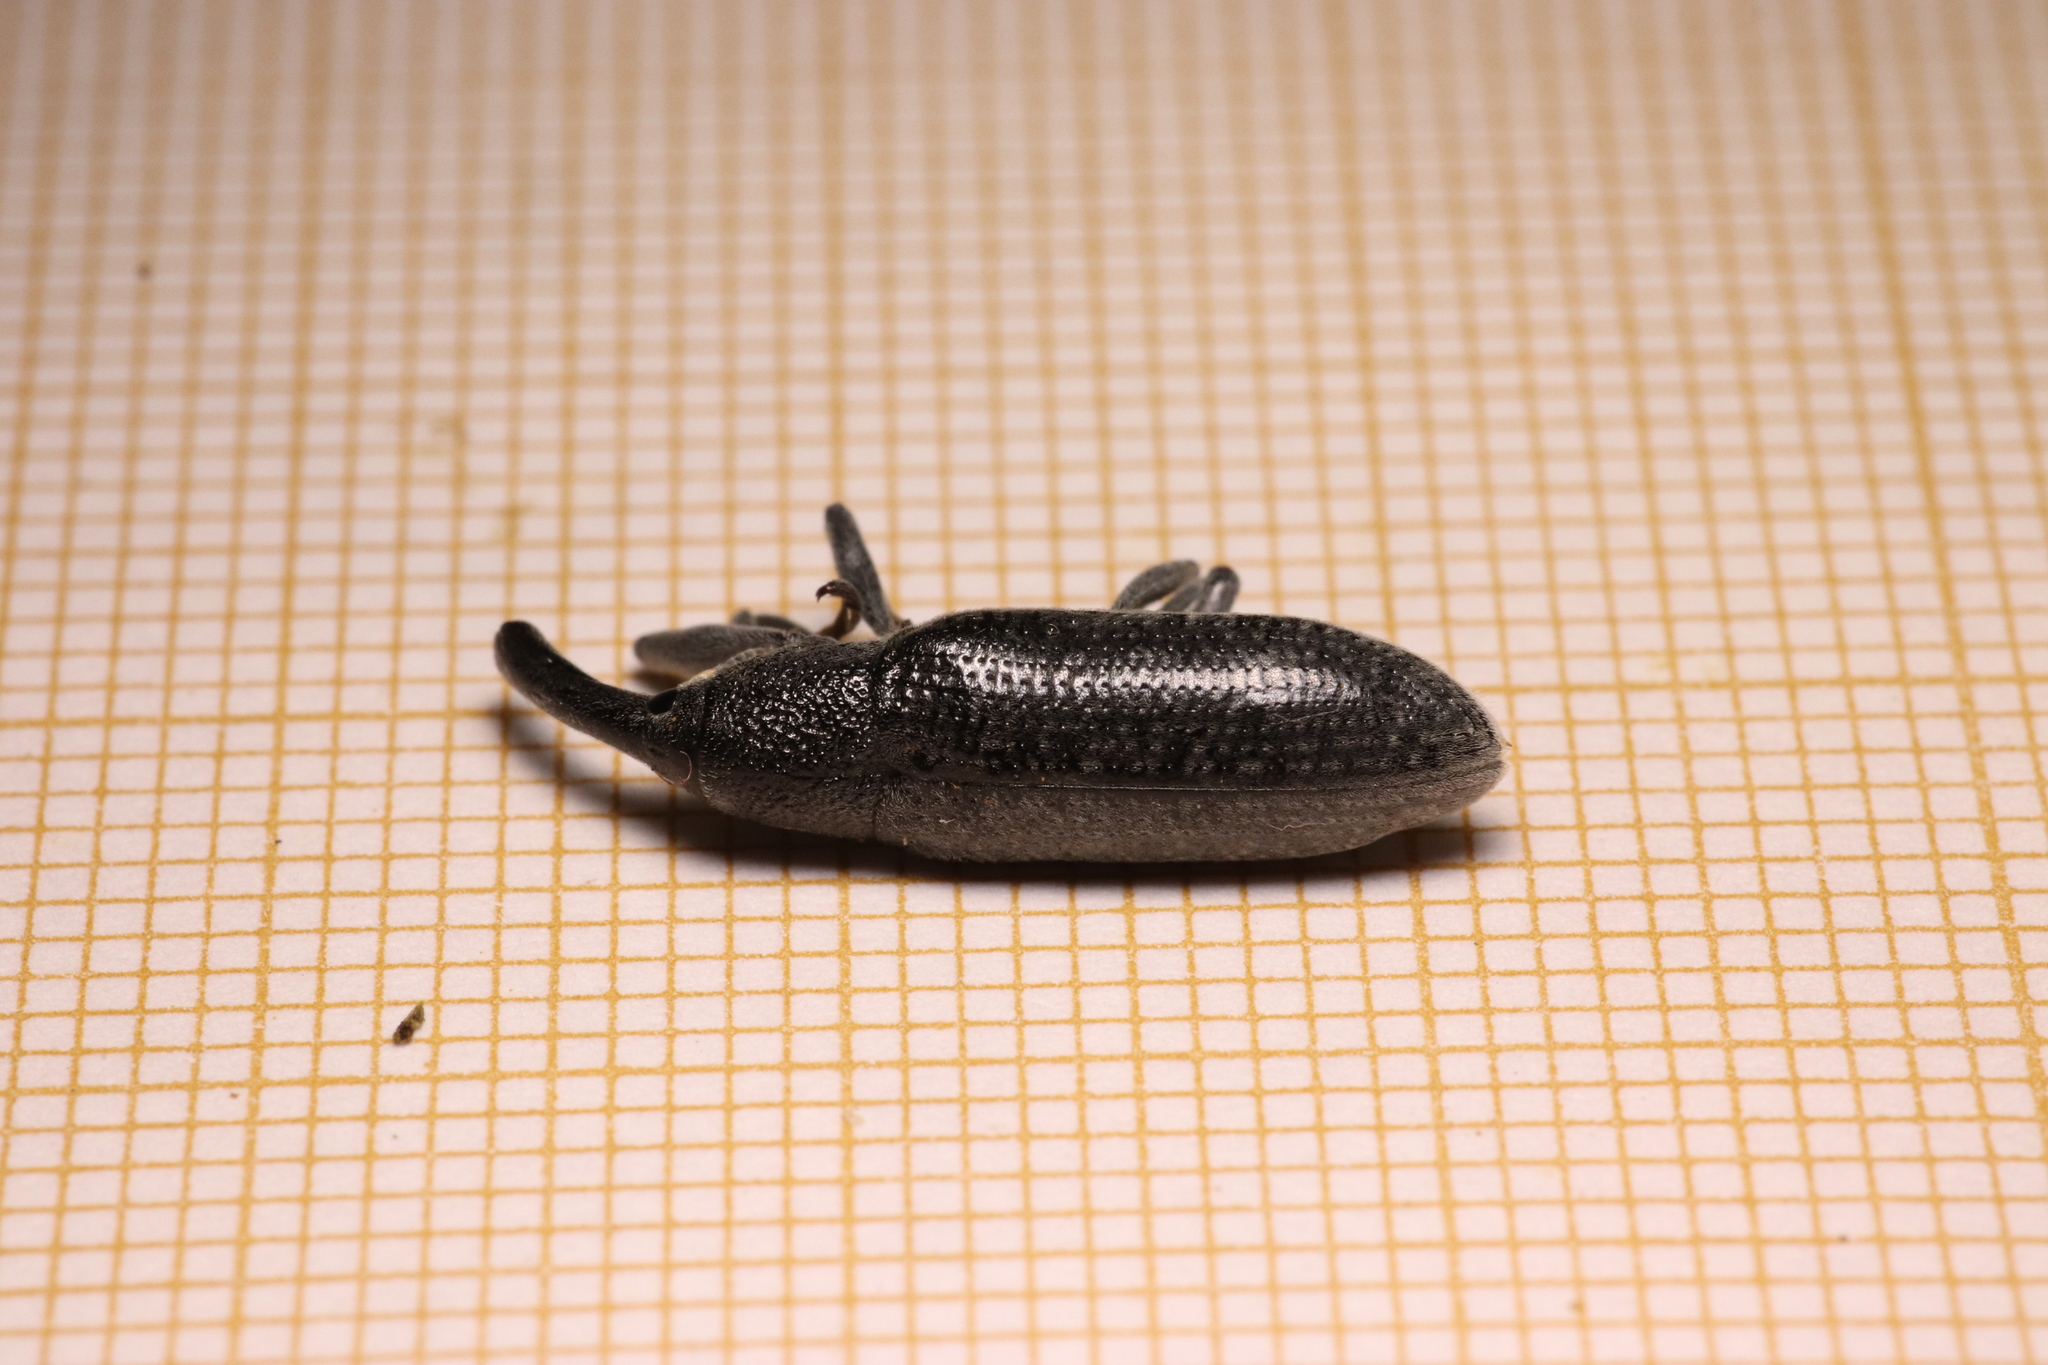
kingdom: Animalia
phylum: Arthropoda
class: Insecta
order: Coleoptera
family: Curculionidae
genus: Lixus
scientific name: Lixus pulverulentus
